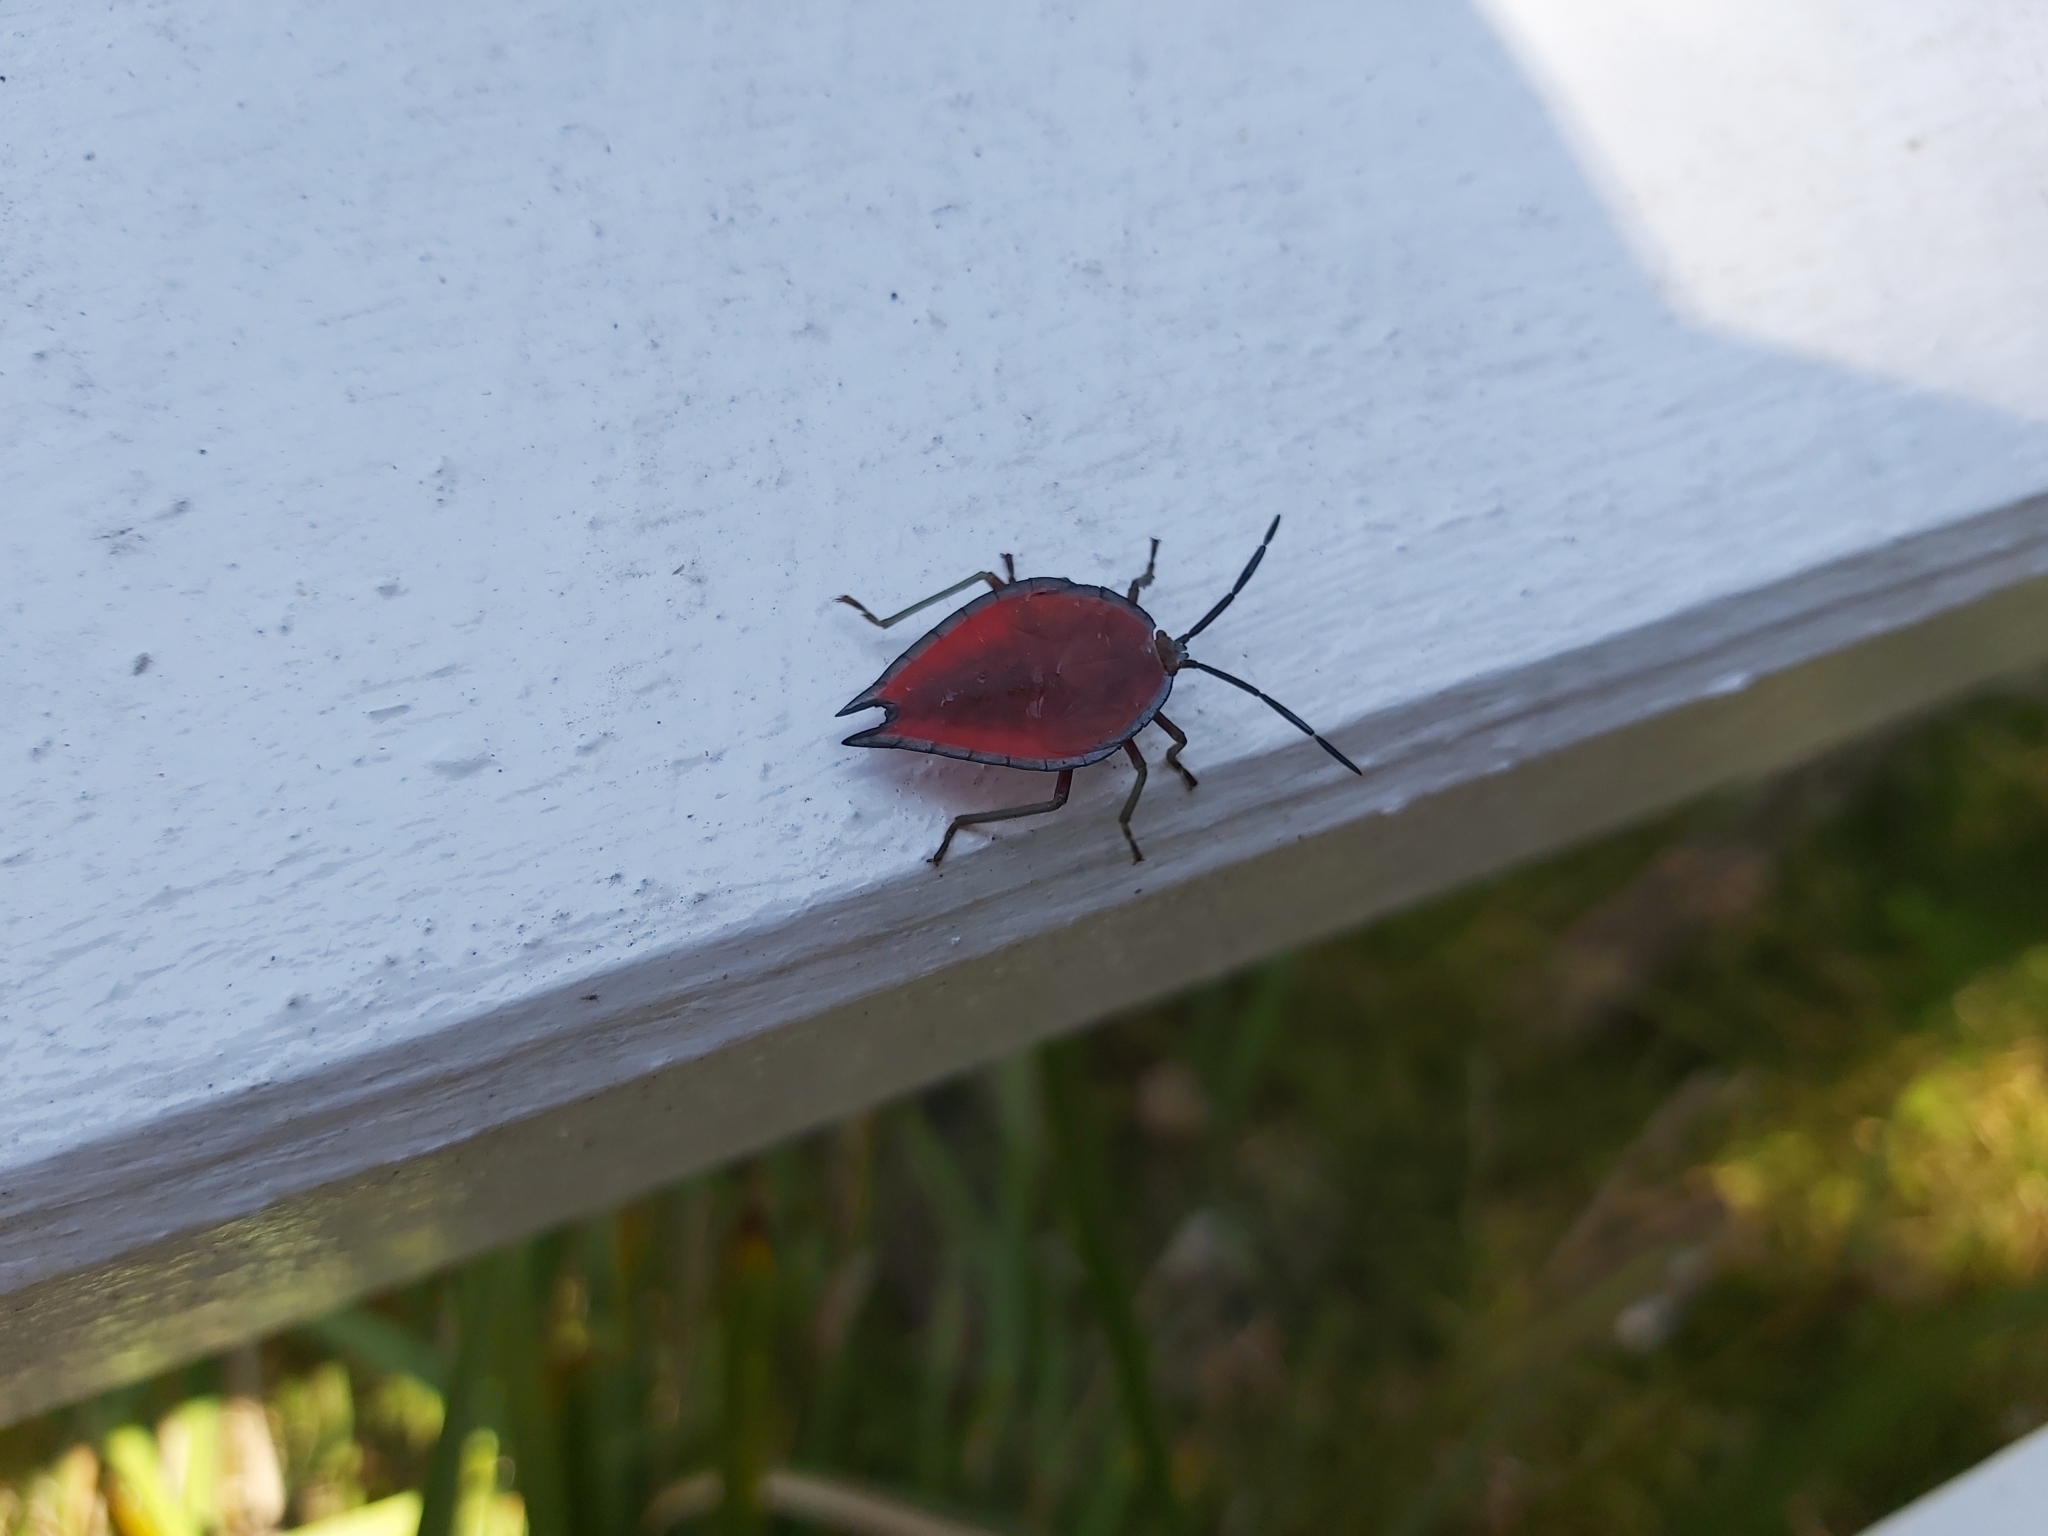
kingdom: Animalia
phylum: Arthropoda
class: Insecta
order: Hemiptera
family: Tessaratomidae
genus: Lyramorpha
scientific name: Lyramorpha rosea
